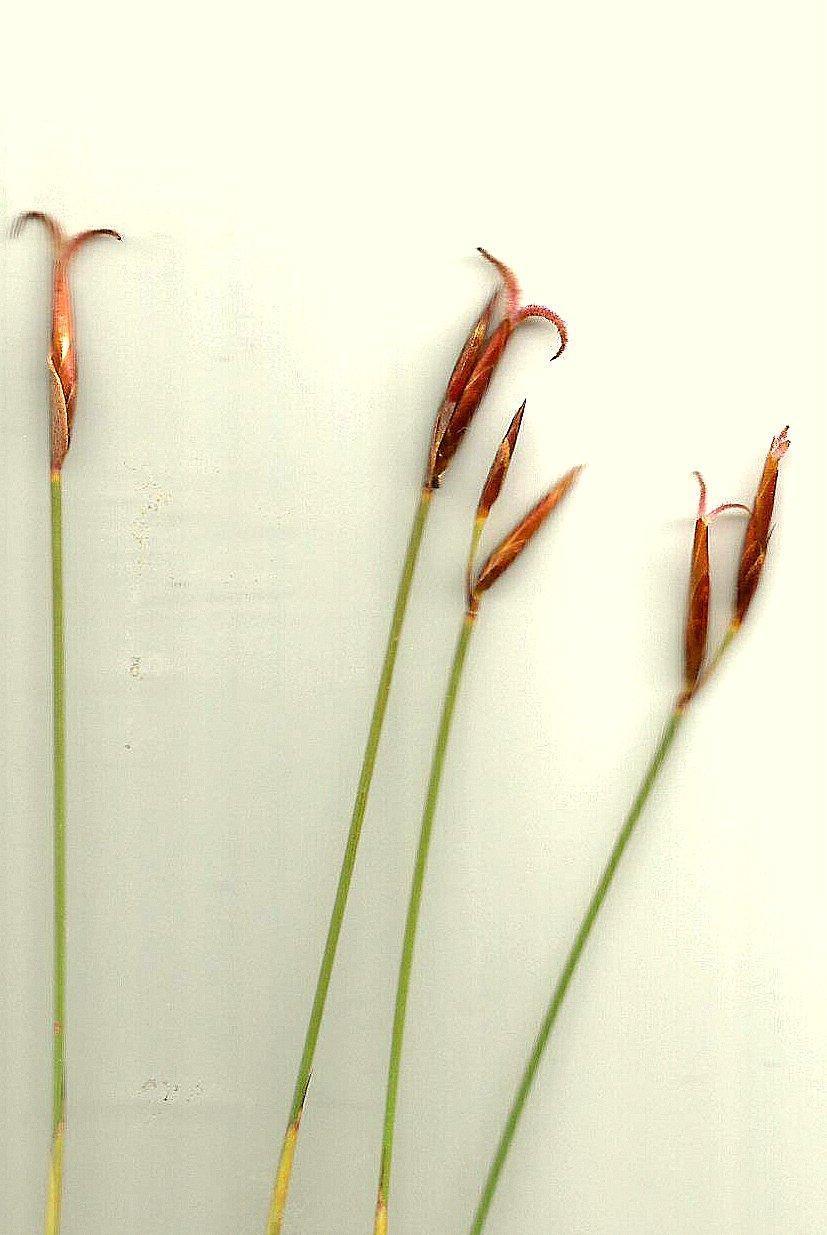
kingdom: Plantae
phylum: Tracheophyta
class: Liliopsida
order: Poales
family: Restionaceae
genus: Hypodiscus
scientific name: Hypodiscus synchroolepis
